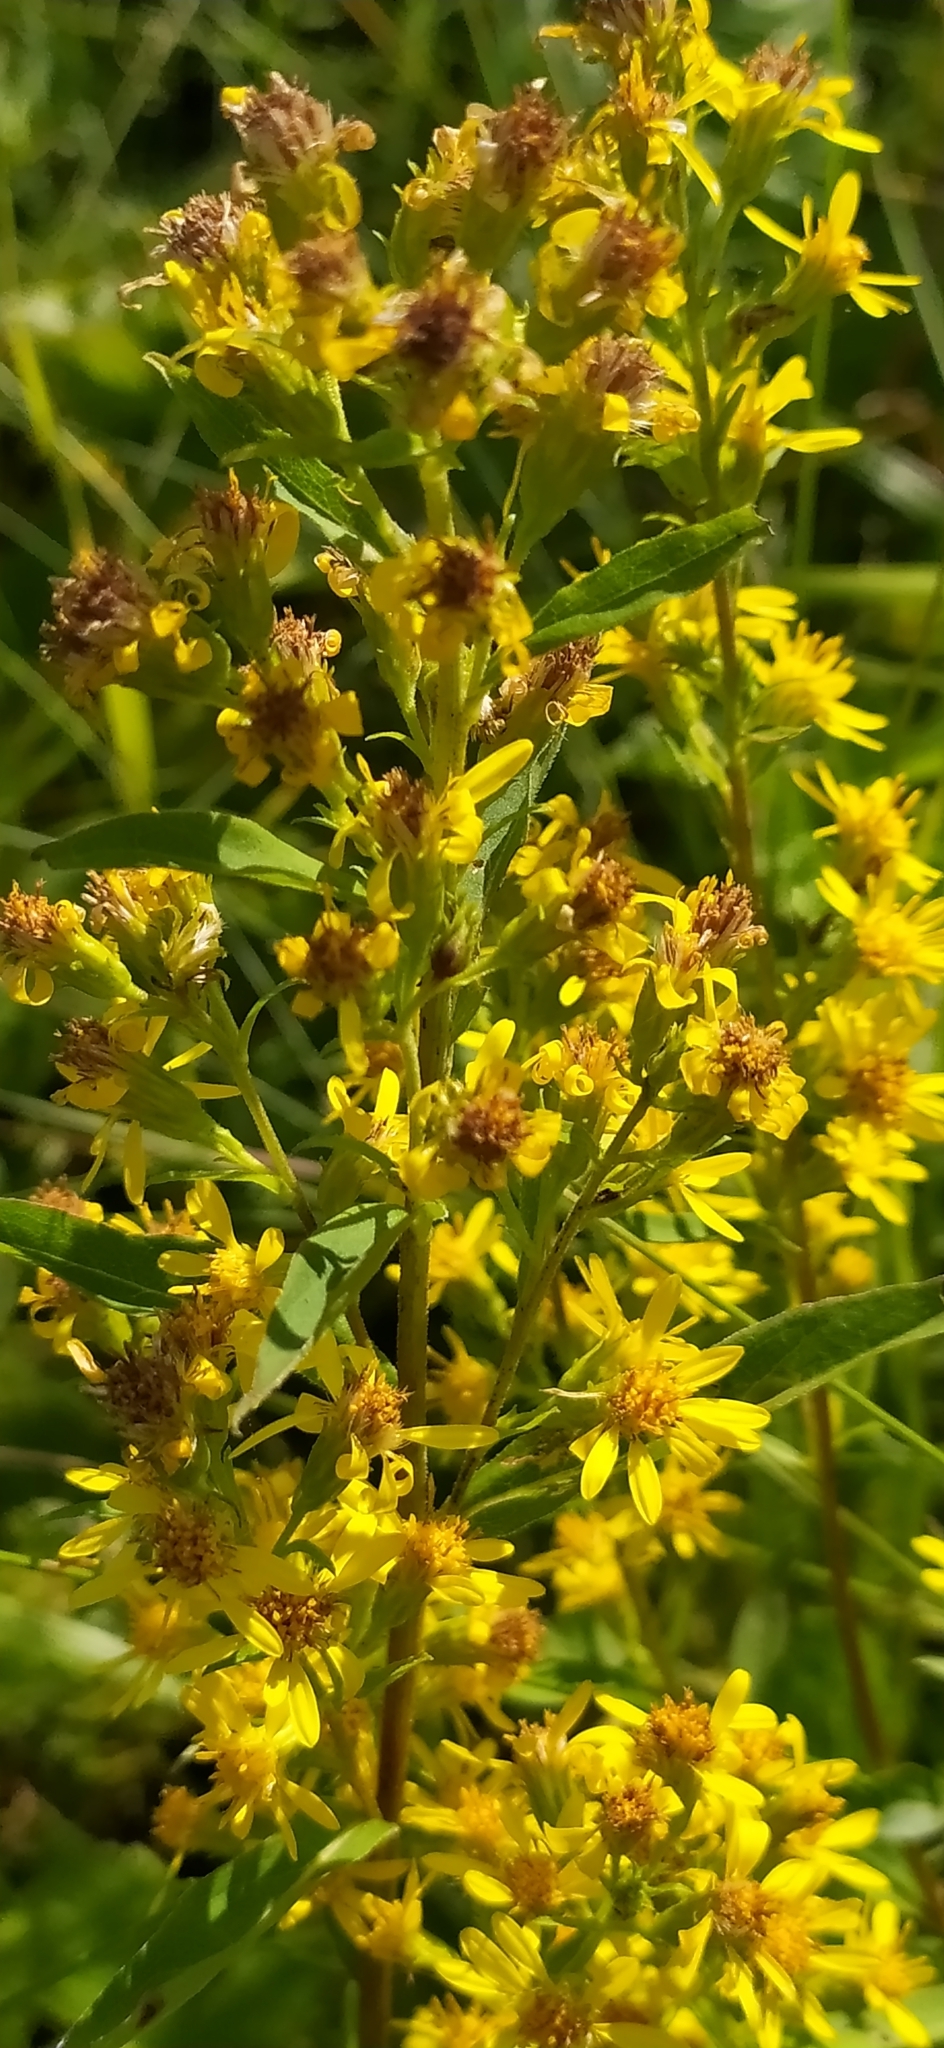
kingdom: Plantae
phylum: Tracheophyta
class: Magnoliopsida
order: Asterales
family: Asteraceae
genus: Solidago
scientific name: Solidago virgaurea
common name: Goldenrod
